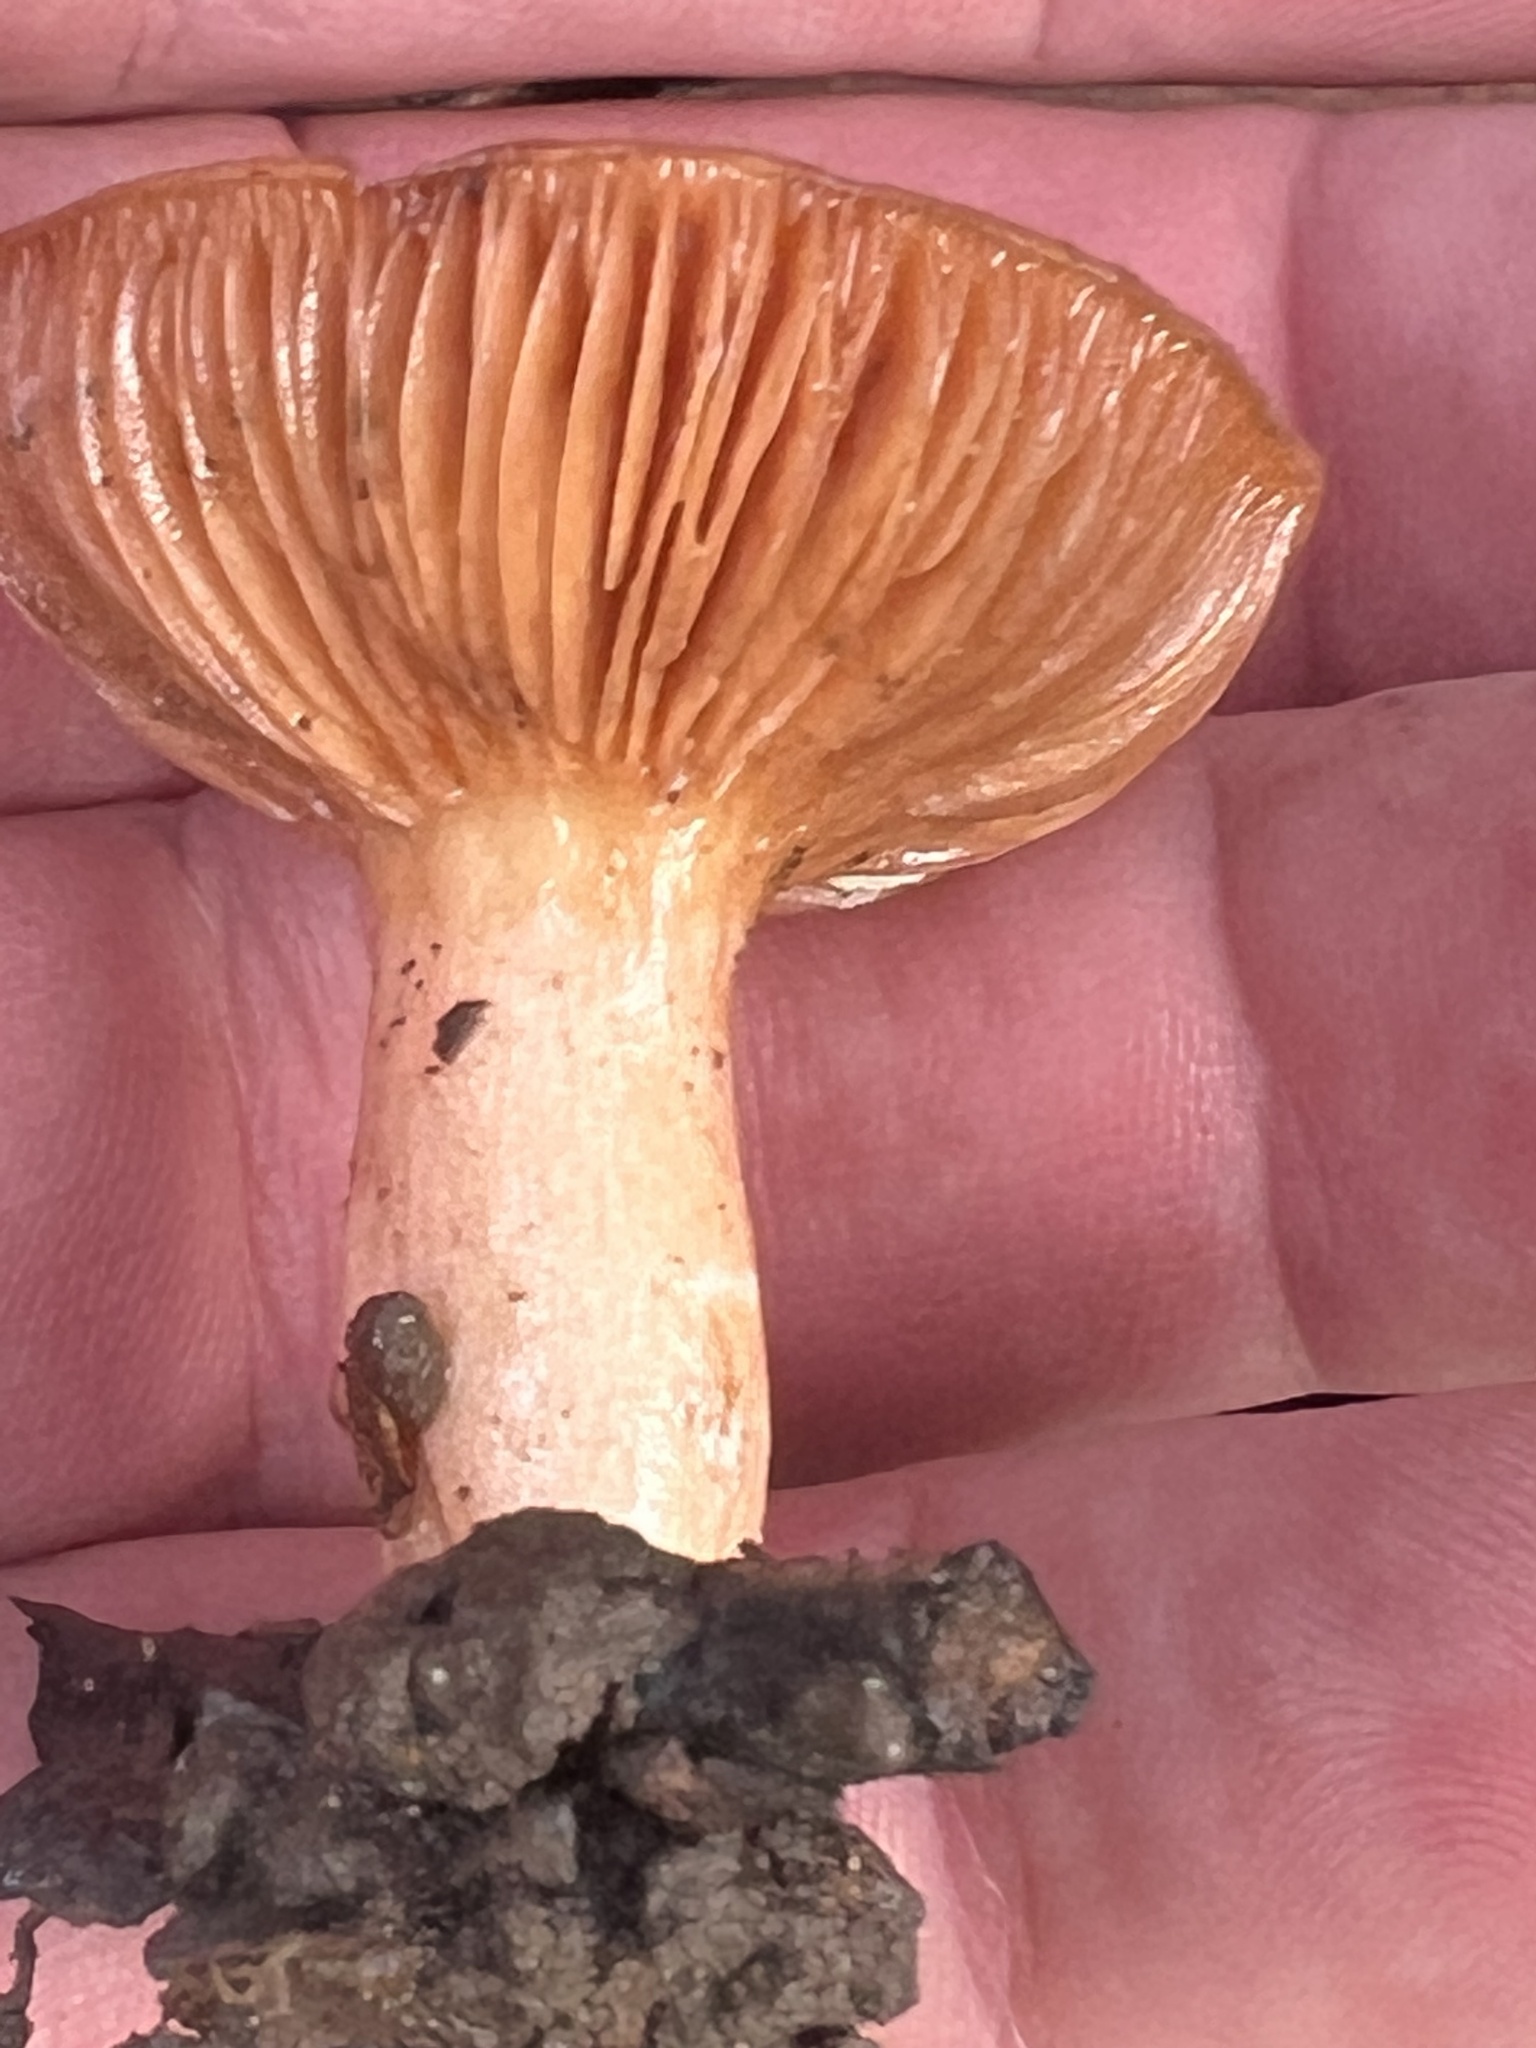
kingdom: Fungi
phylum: Basidiomycota
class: Agaricomycetes
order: Russulales
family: Russulaceae
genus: Lactarius
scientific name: Lactarius xanthogalactus
